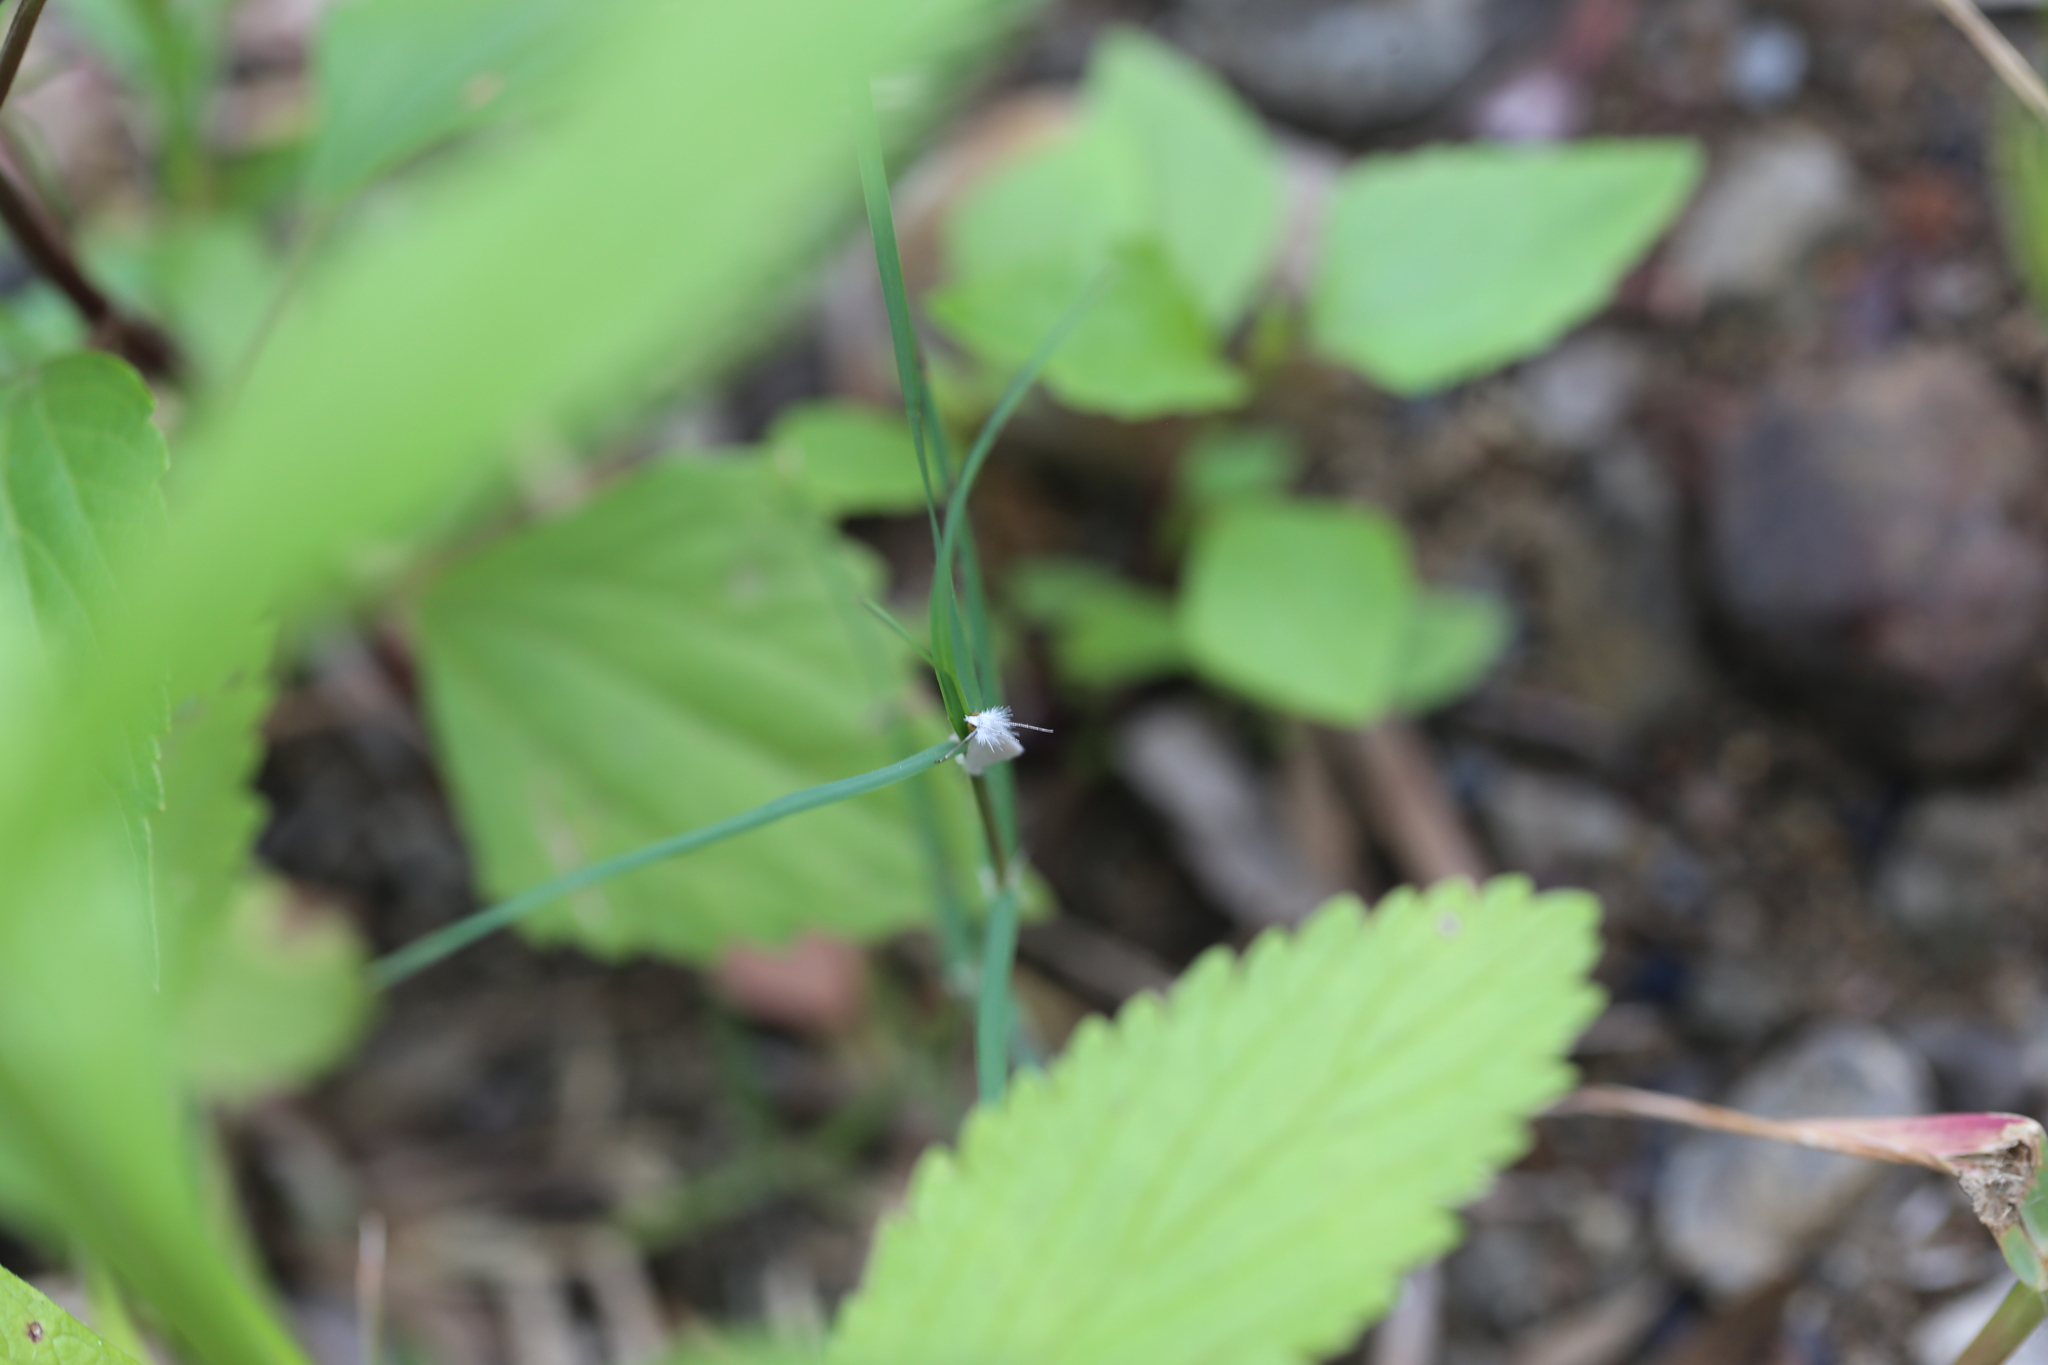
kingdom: Animalia
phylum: Arthropoda
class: Insecta
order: Lepidoptera
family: Crambidae
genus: Tipanaea
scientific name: Tipanaea patulella
